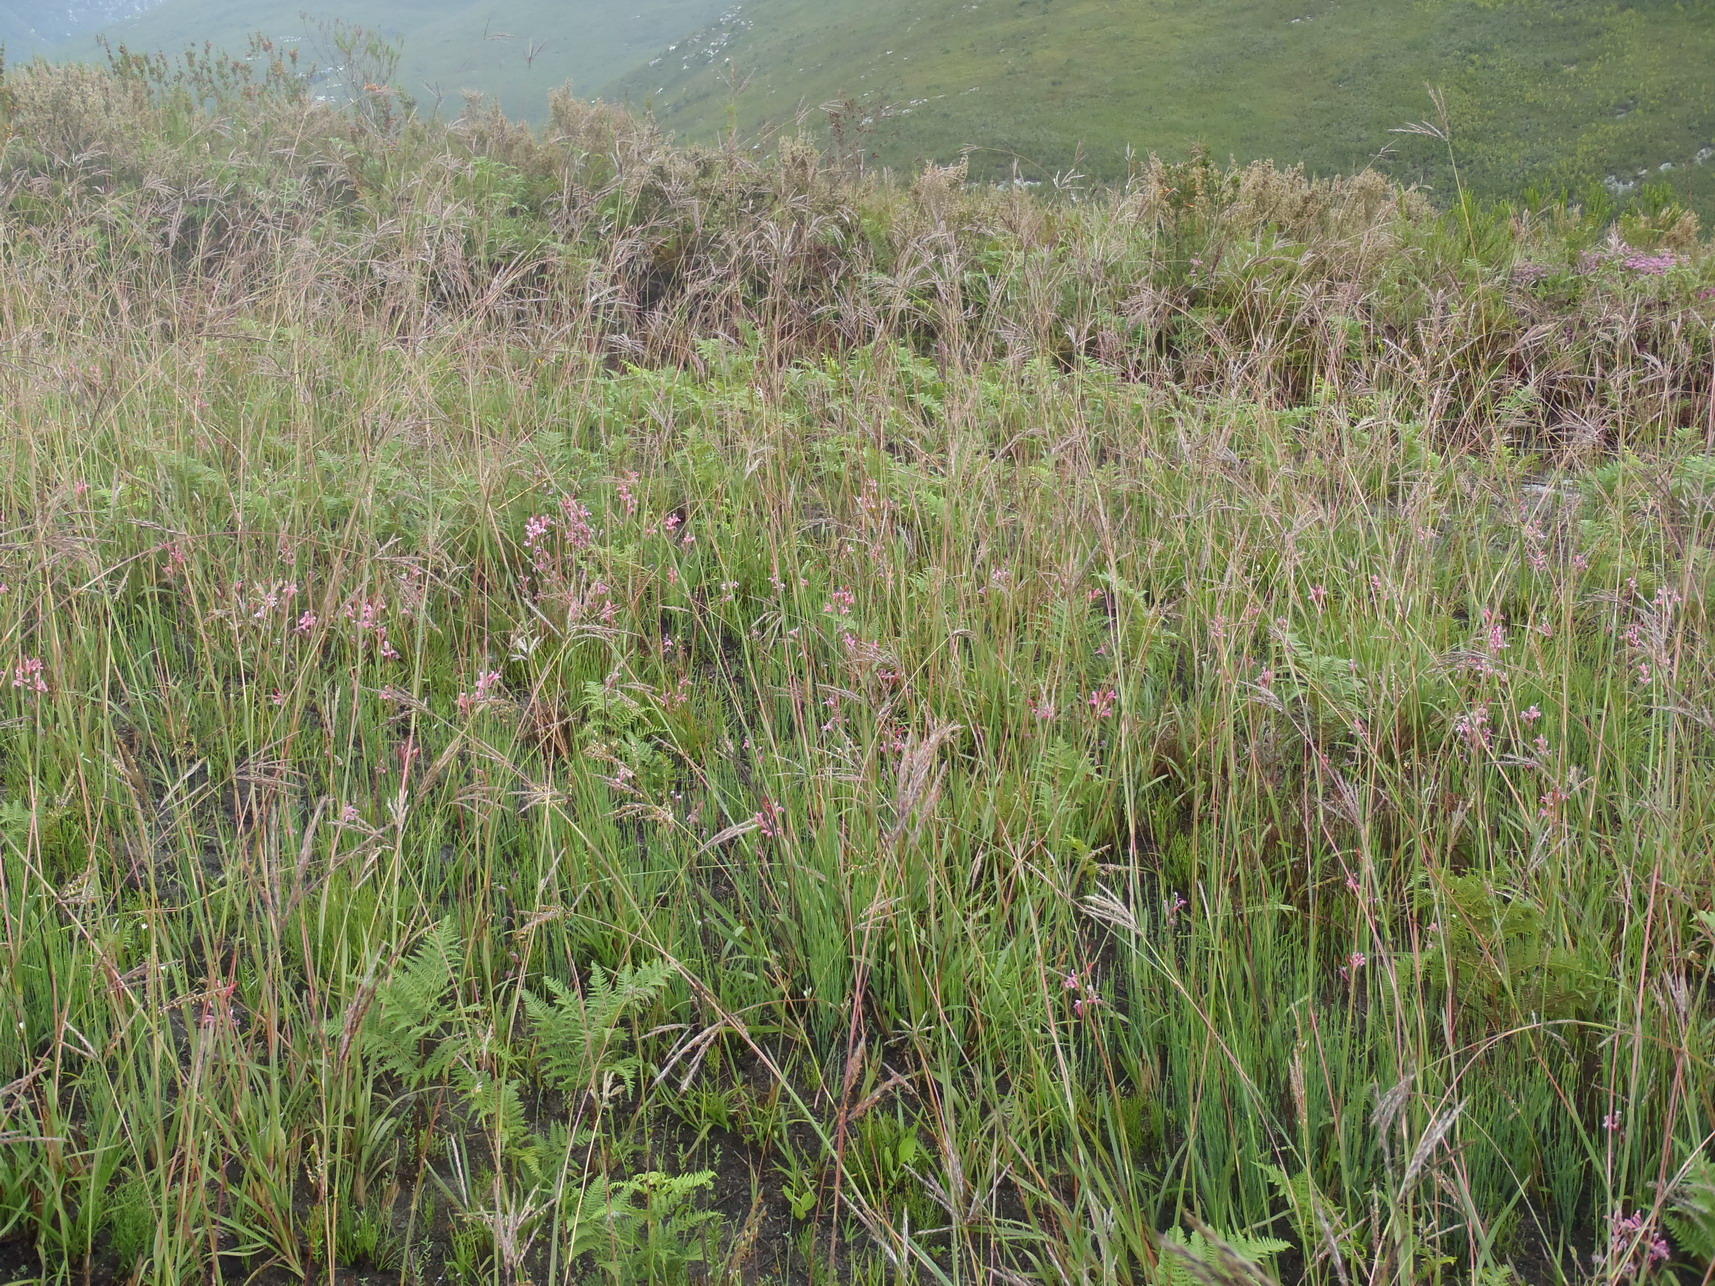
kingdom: Plantae
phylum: Tracheophyta
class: Liliopsida
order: Asparagales
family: Iridaceae
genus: Tritoniopsis
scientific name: Tritoniopsis ramosa
